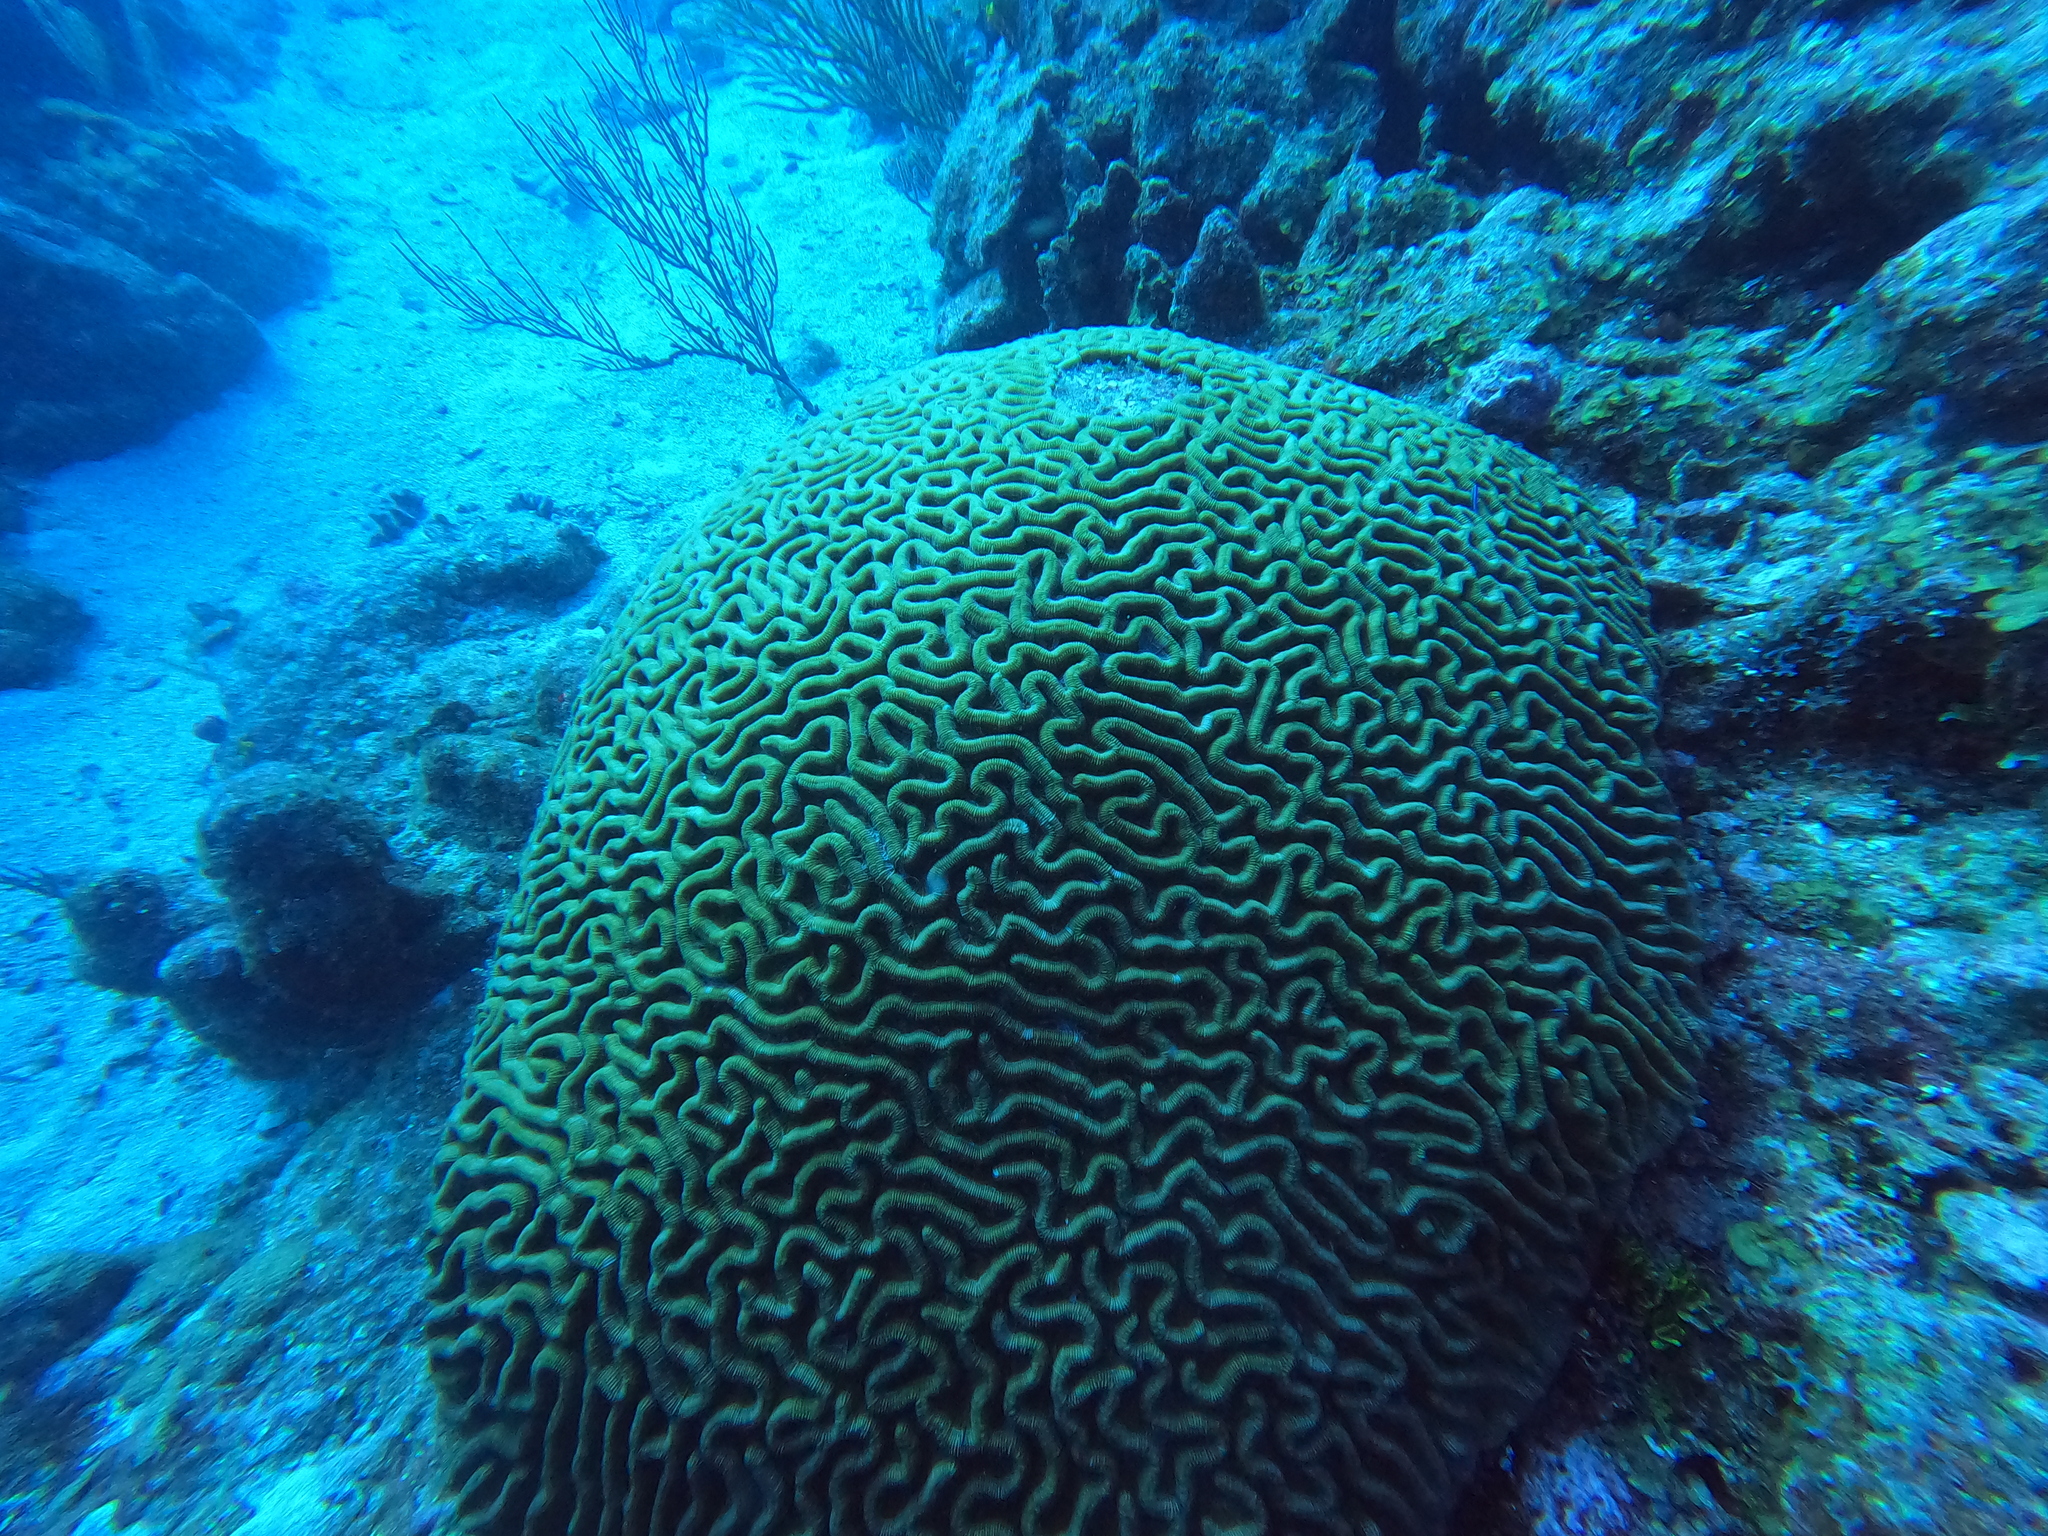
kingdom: Animalia
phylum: Cnidaria
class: Anthozoa
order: Scleractinia
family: Faviidae
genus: Colpophyllia
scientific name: Colpophyllia natans
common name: Boulder brain coral
